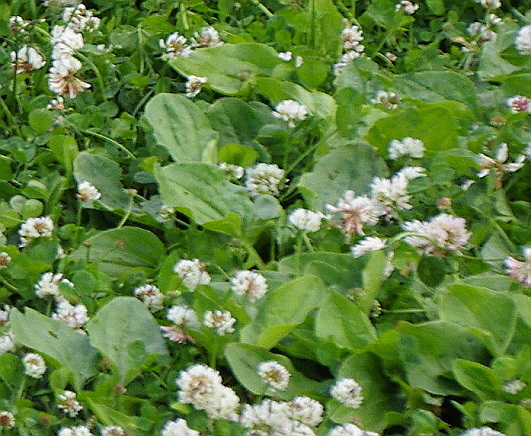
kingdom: Plantae
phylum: Tracheophyta
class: Magnoliopsida
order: Lamiales
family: Plantaginaceae
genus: Plantago
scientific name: Plantago major
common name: Common plantain
